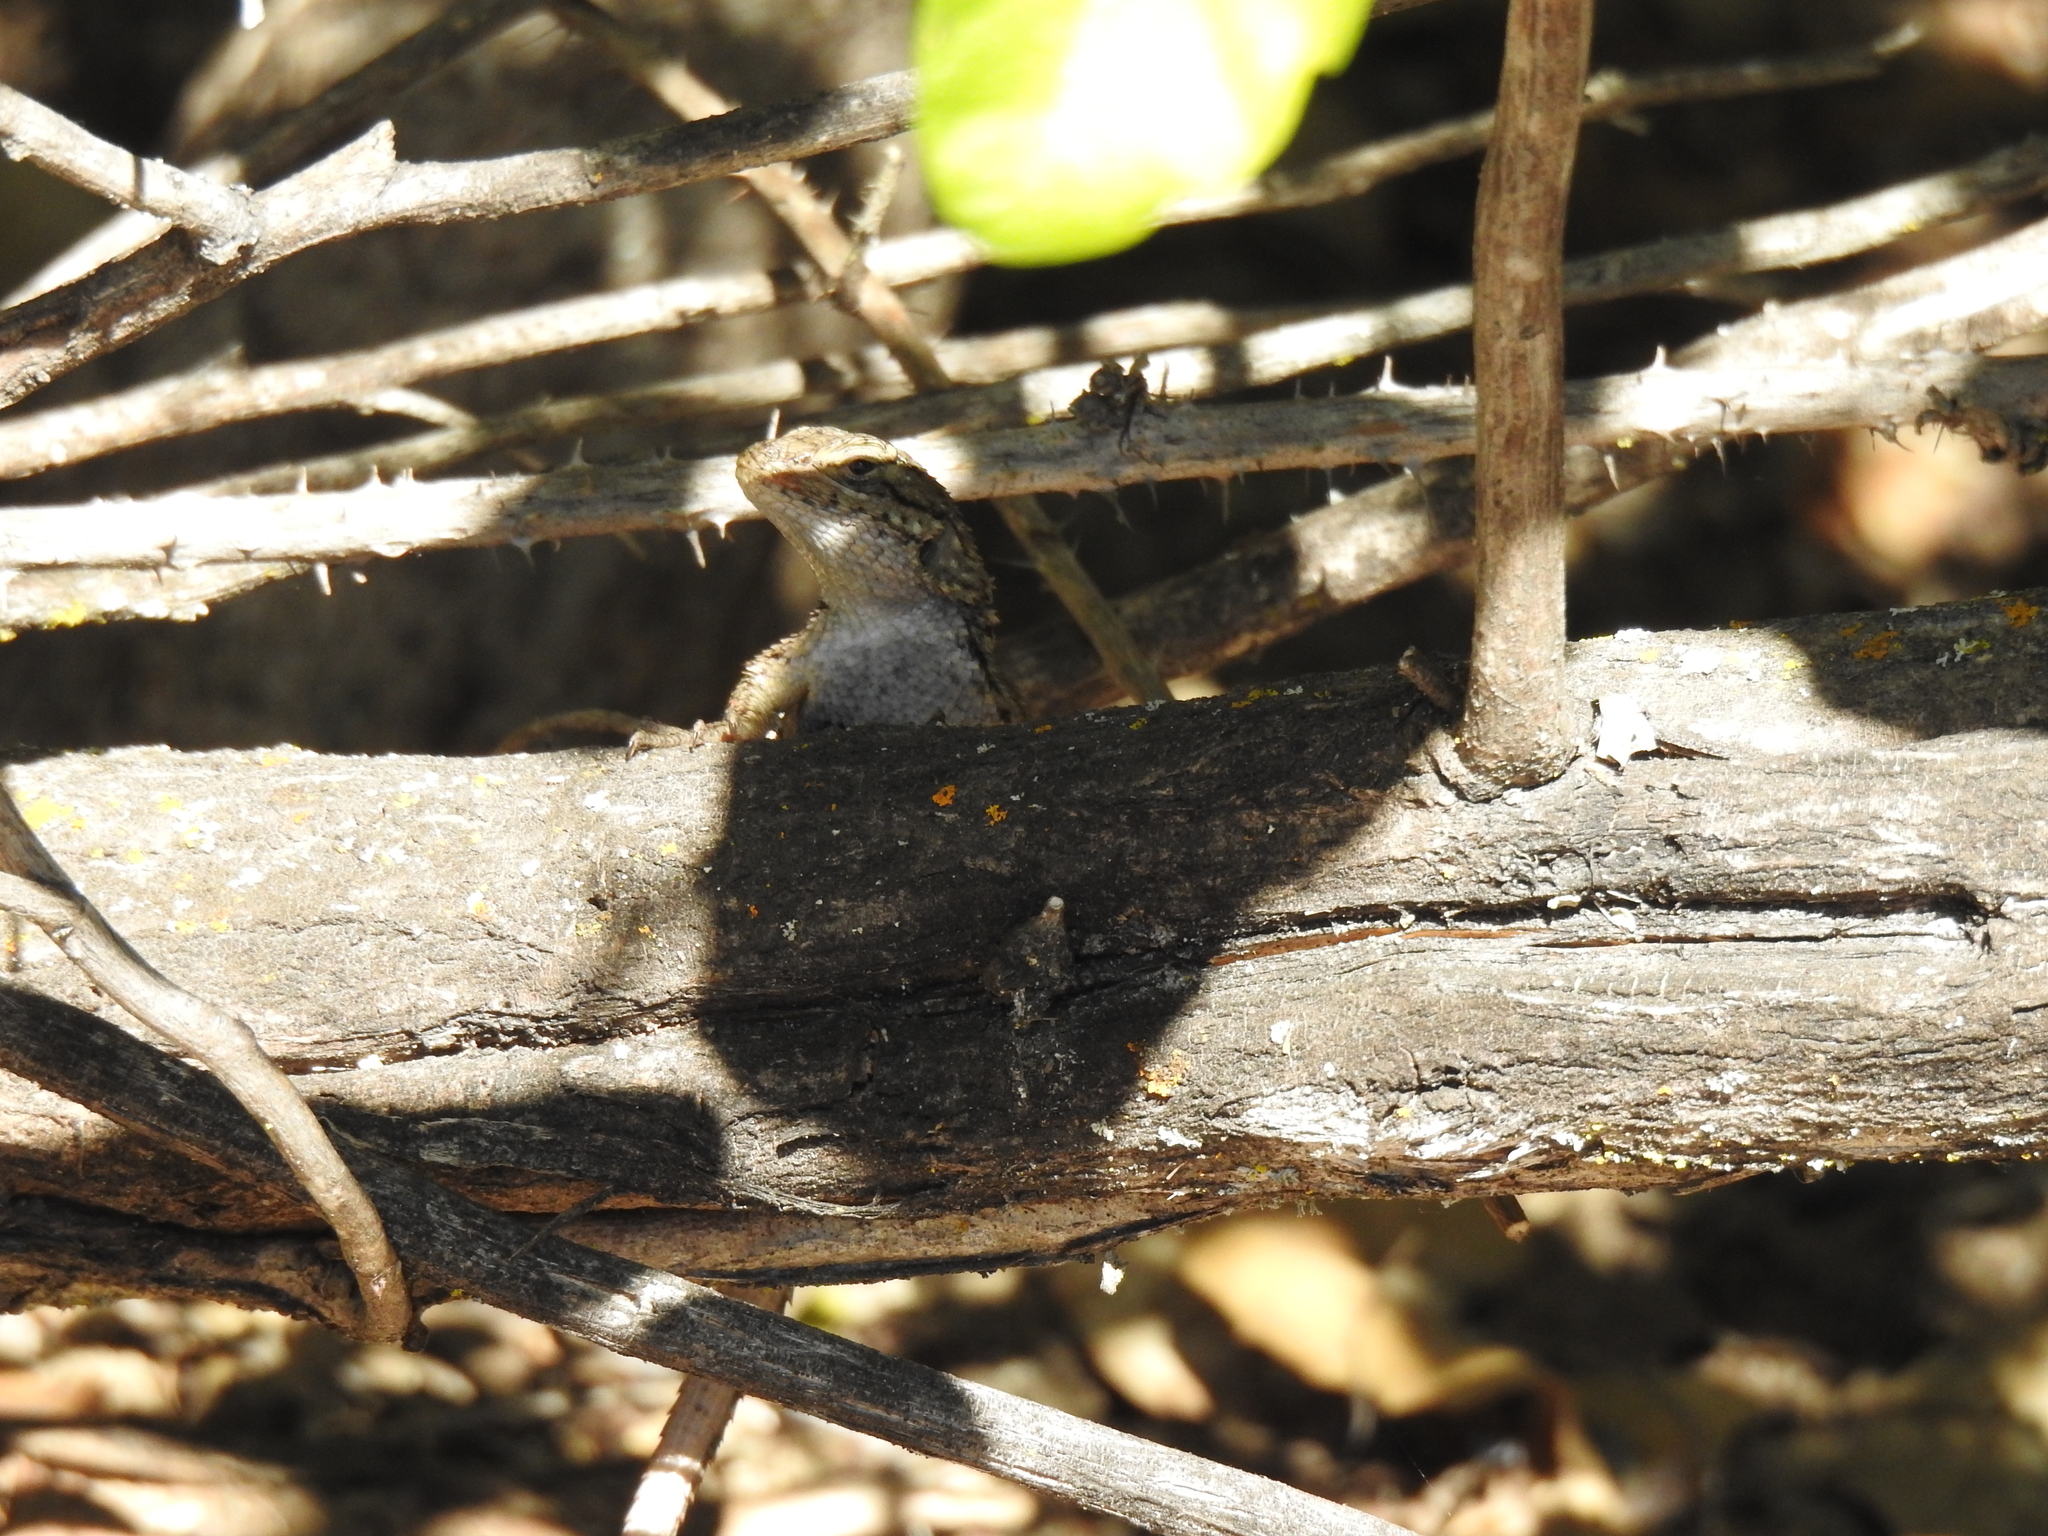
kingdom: Animalia
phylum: Chordata
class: Squamata
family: Phrynosomatidae
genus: Sceloporus
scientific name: Sceloporus occidentalis
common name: Western fence lizard
